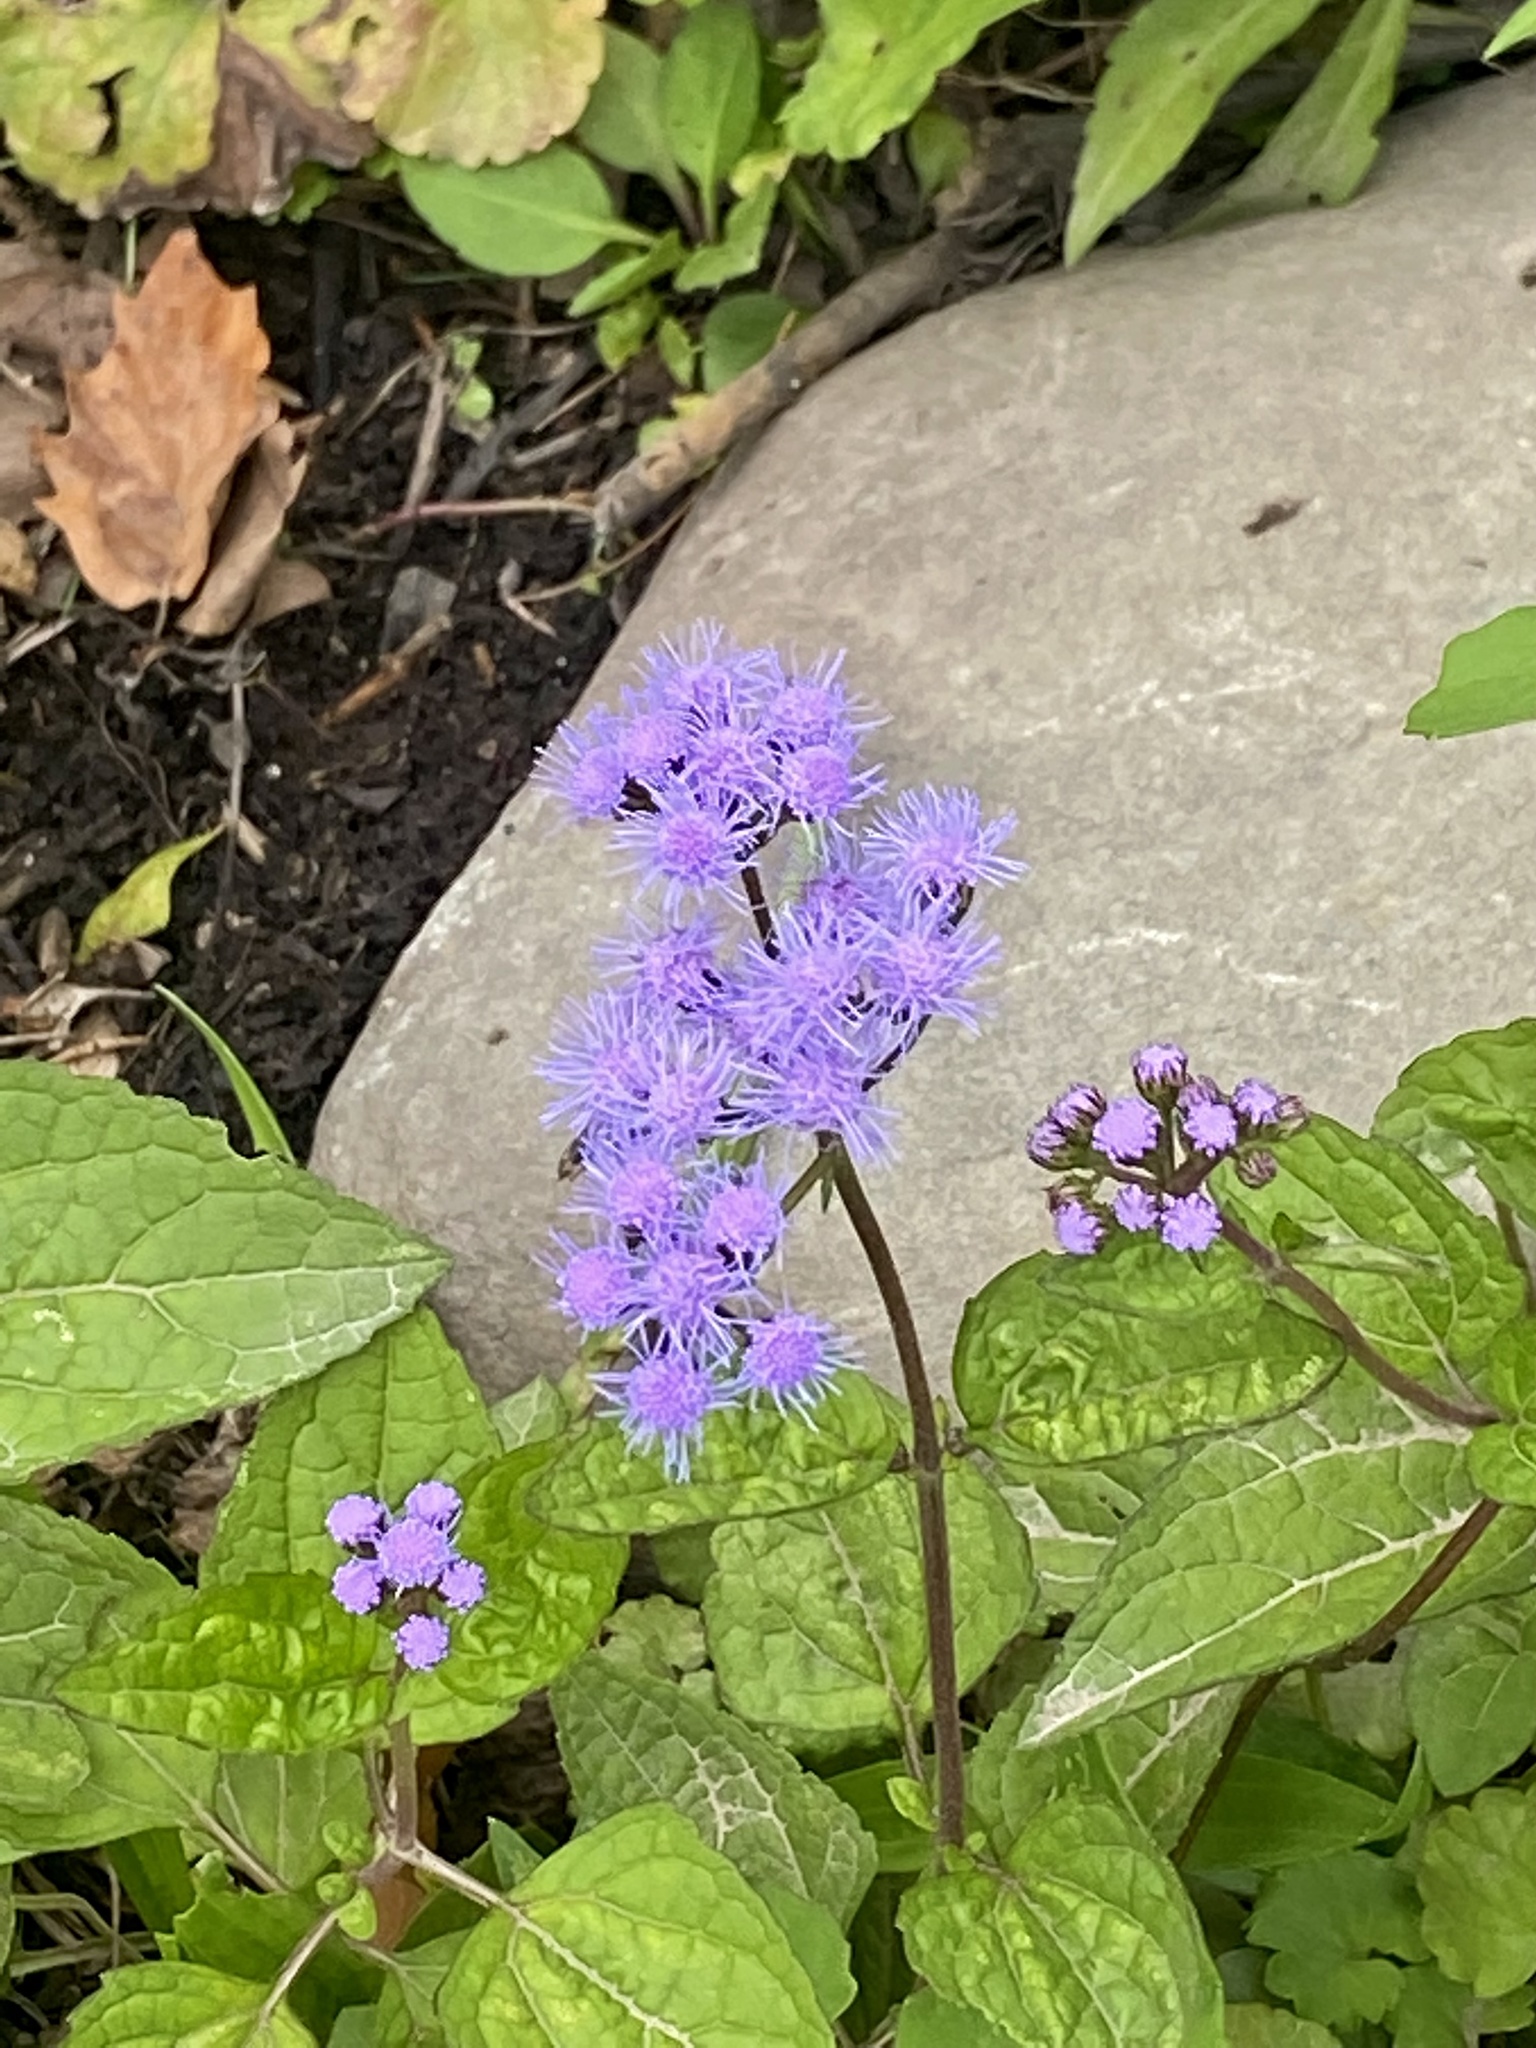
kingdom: Plantae
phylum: Tracheophyta
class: Magnoliopsida
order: Asterales
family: Asteraceae
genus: Conoclinium
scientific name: Conoclinium coelestinum
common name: Blue mistflower
